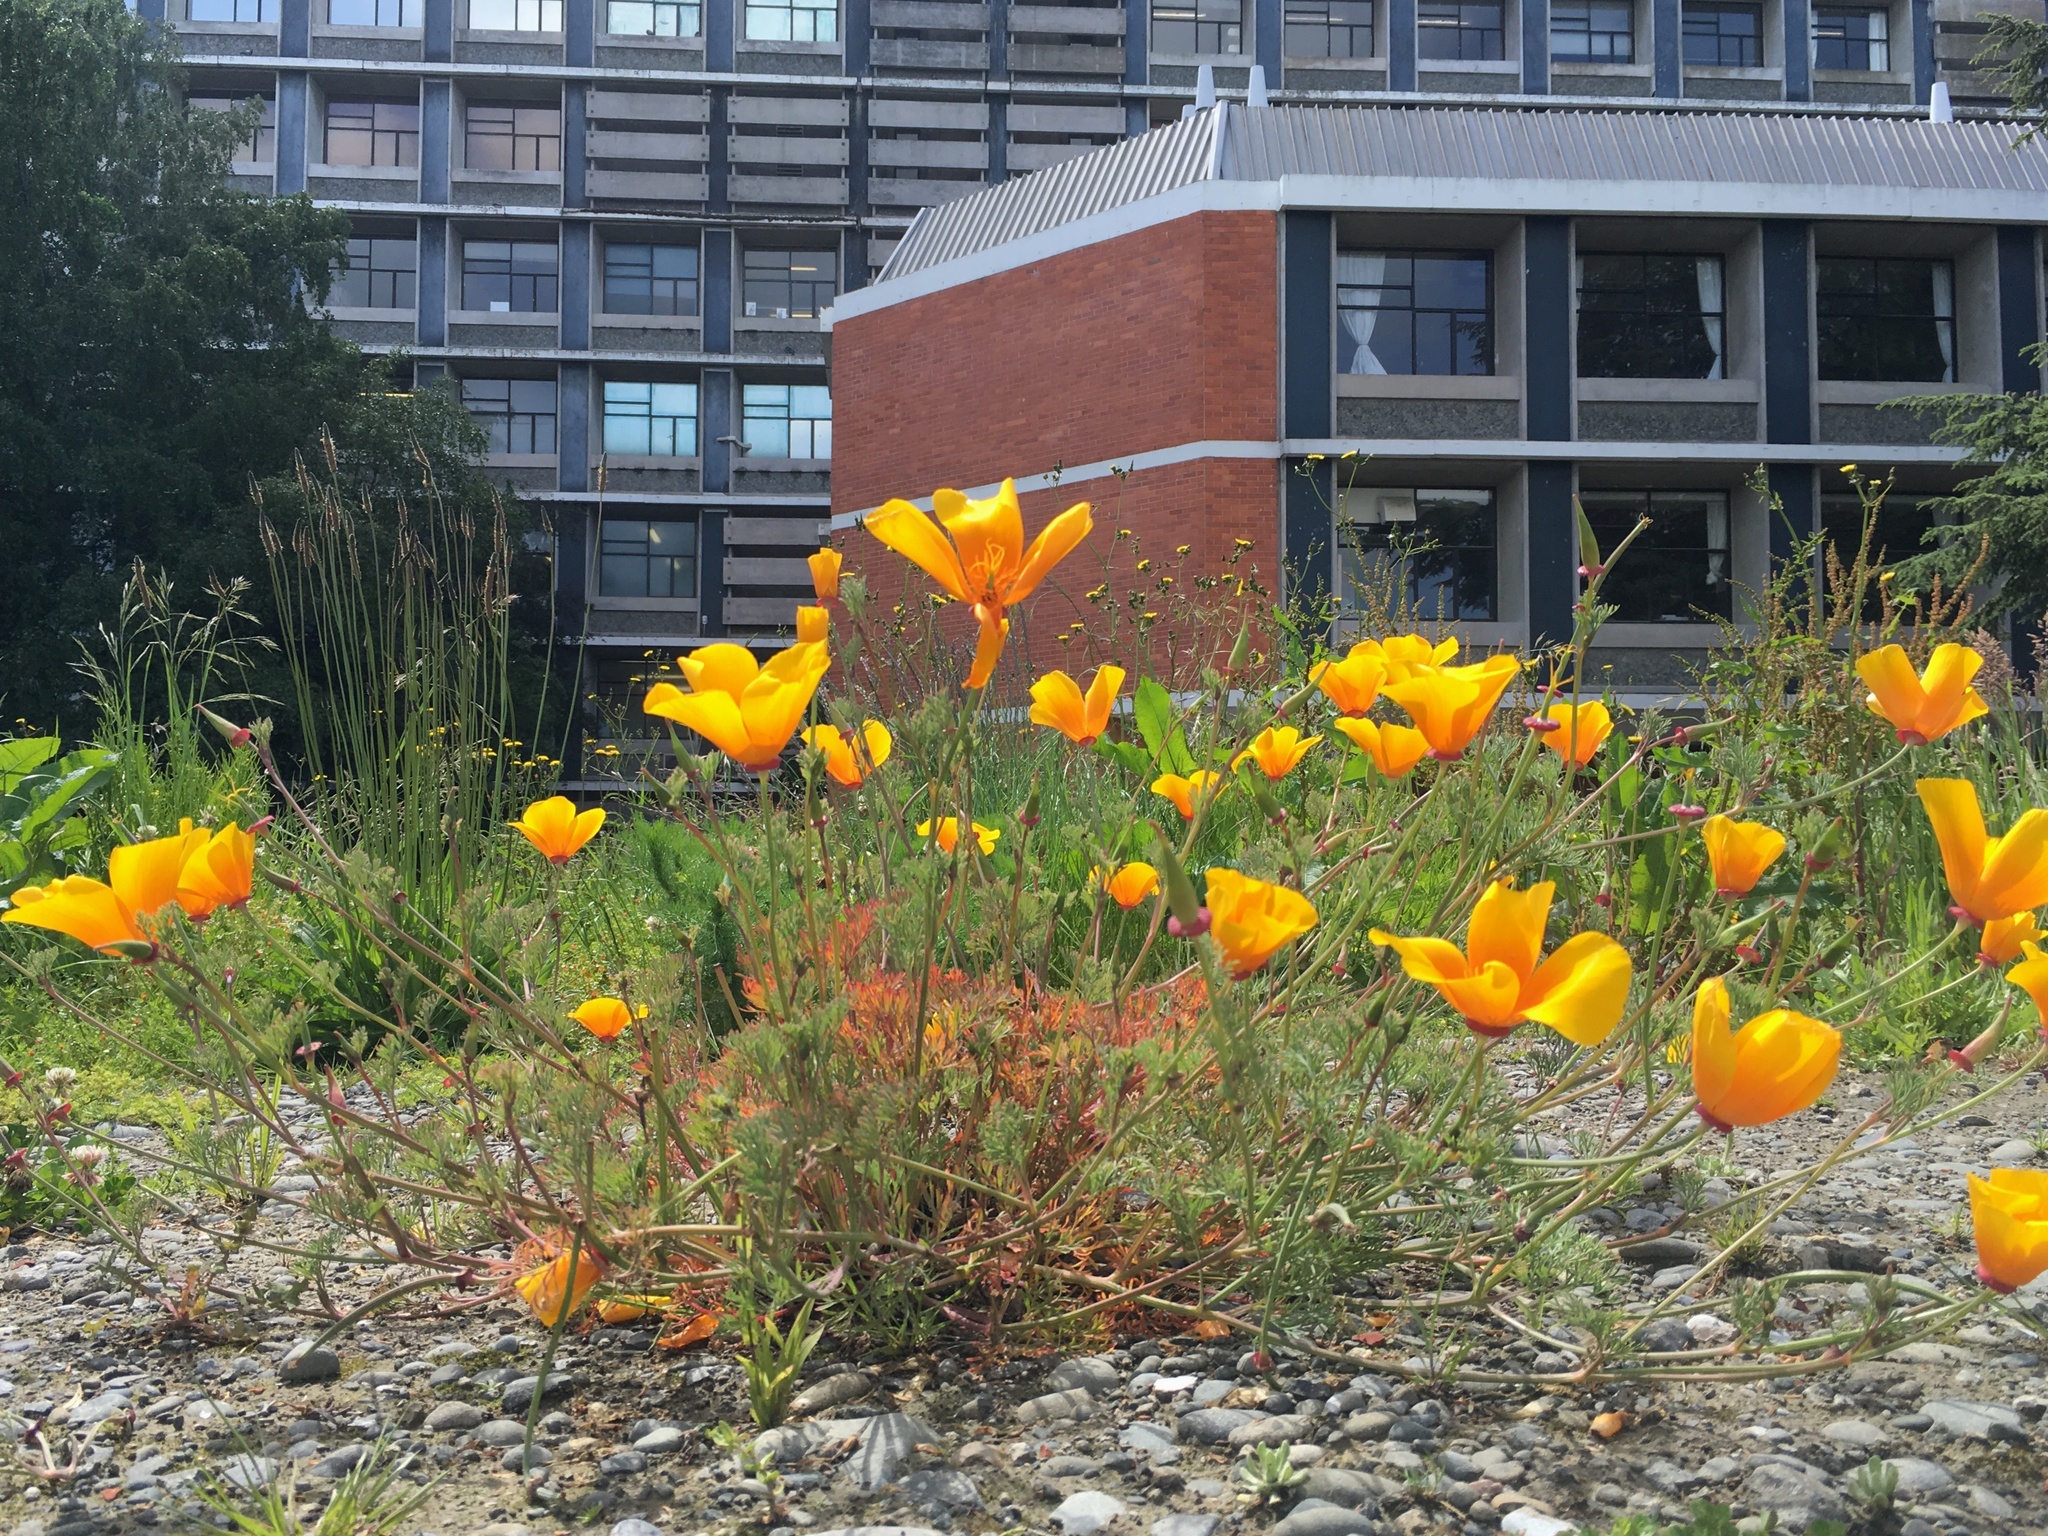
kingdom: Plantae
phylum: Tracheophyta
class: Magnoliopsida
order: Ranunculales
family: Papaveraceae
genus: Eschscholzia
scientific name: Eschscholzia californica
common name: California poppy
